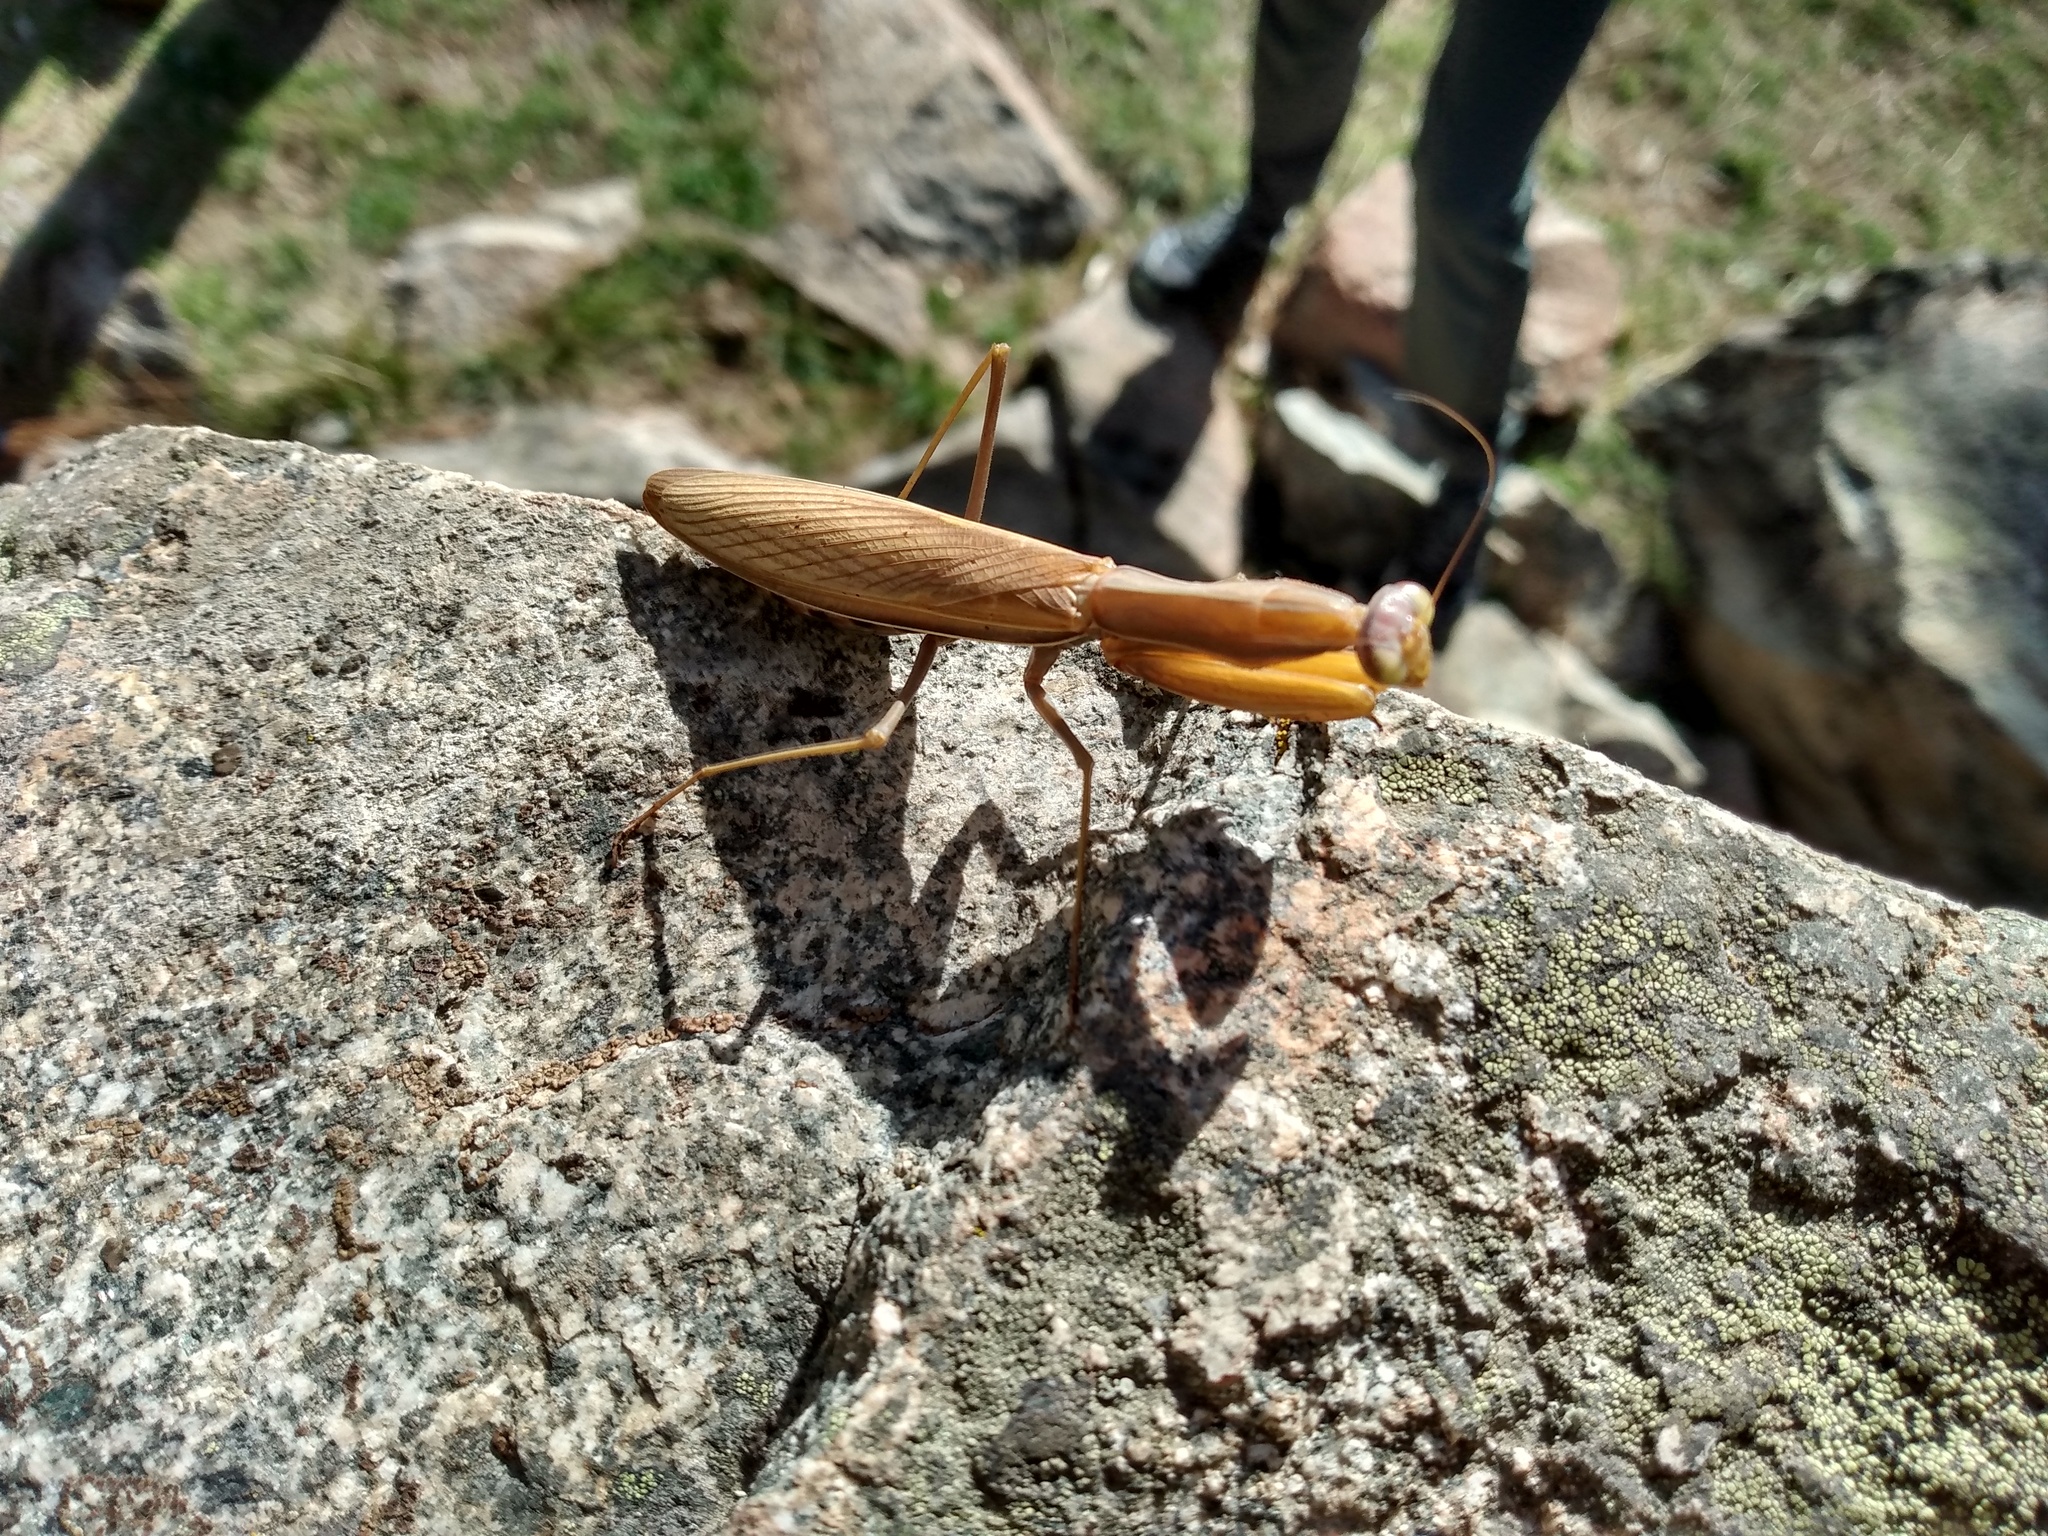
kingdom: Animalia
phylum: Arthropoda
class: Insecta
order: Mantodea
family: Mantidae
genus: Mantis
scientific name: Mantis religiosa
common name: Praying mantis
